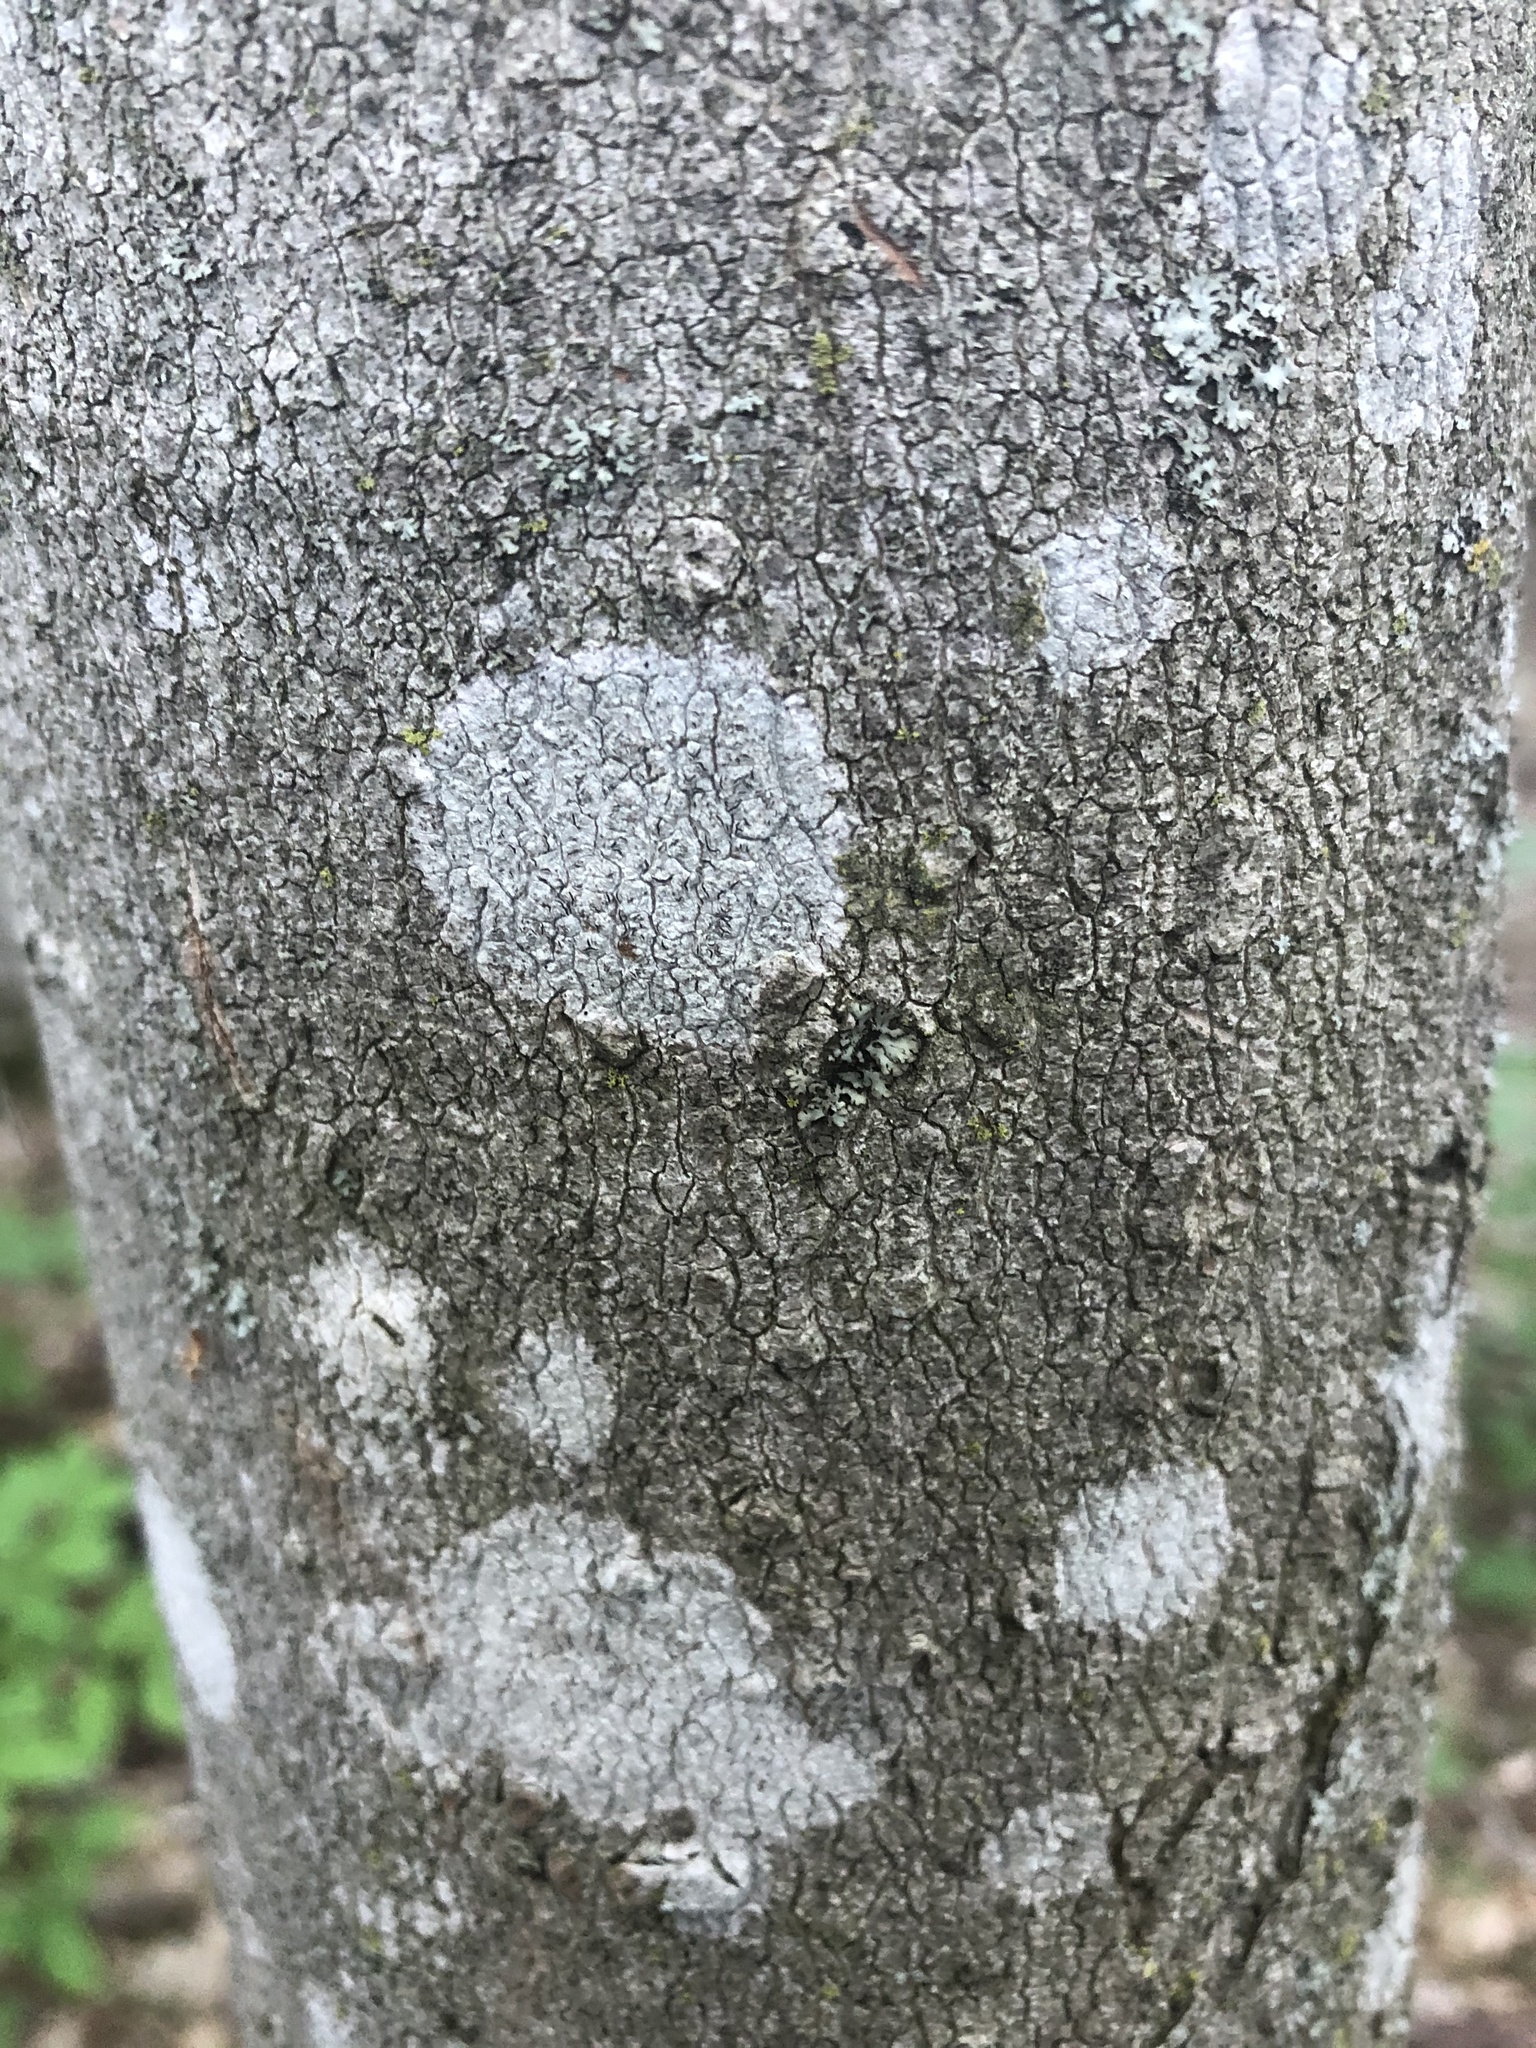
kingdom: Fungi
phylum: Ascomycota
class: Lecanoromycetes
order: Ostropales
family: Graphidaceae
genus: Graphis
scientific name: Graphis scripta
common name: Script lichen
